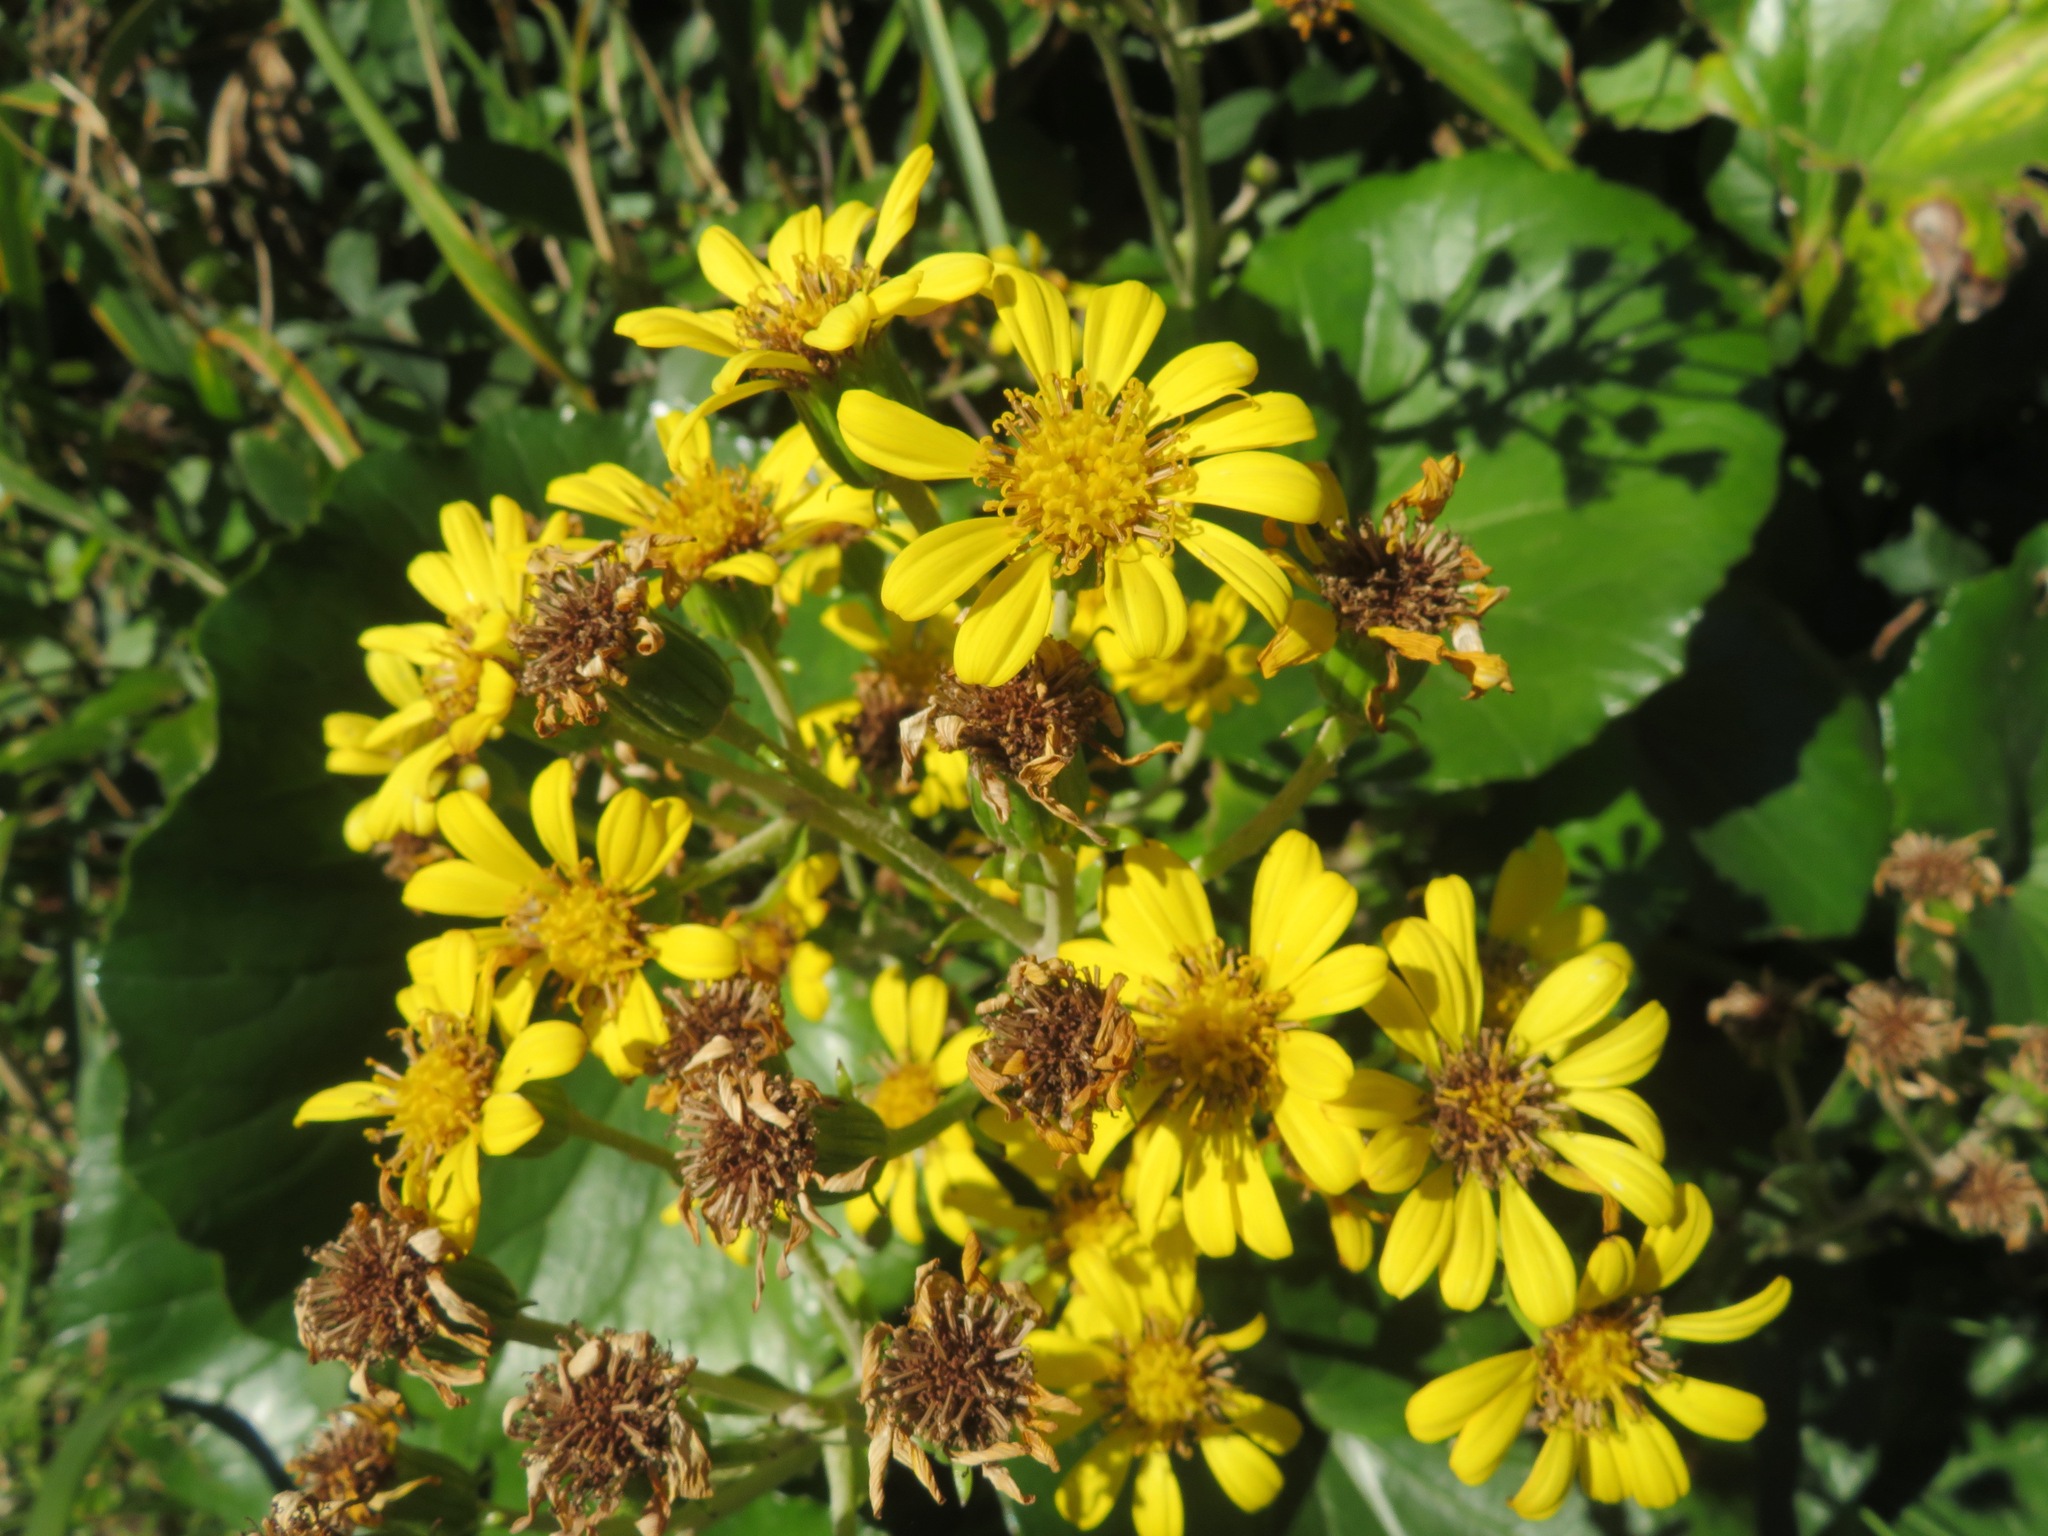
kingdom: Plantae
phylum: Tracheophyta
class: Magnoliopsida
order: Asterales
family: Asteraceae
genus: Farfugium
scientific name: Farfugium japonicum
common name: Leopardplant
